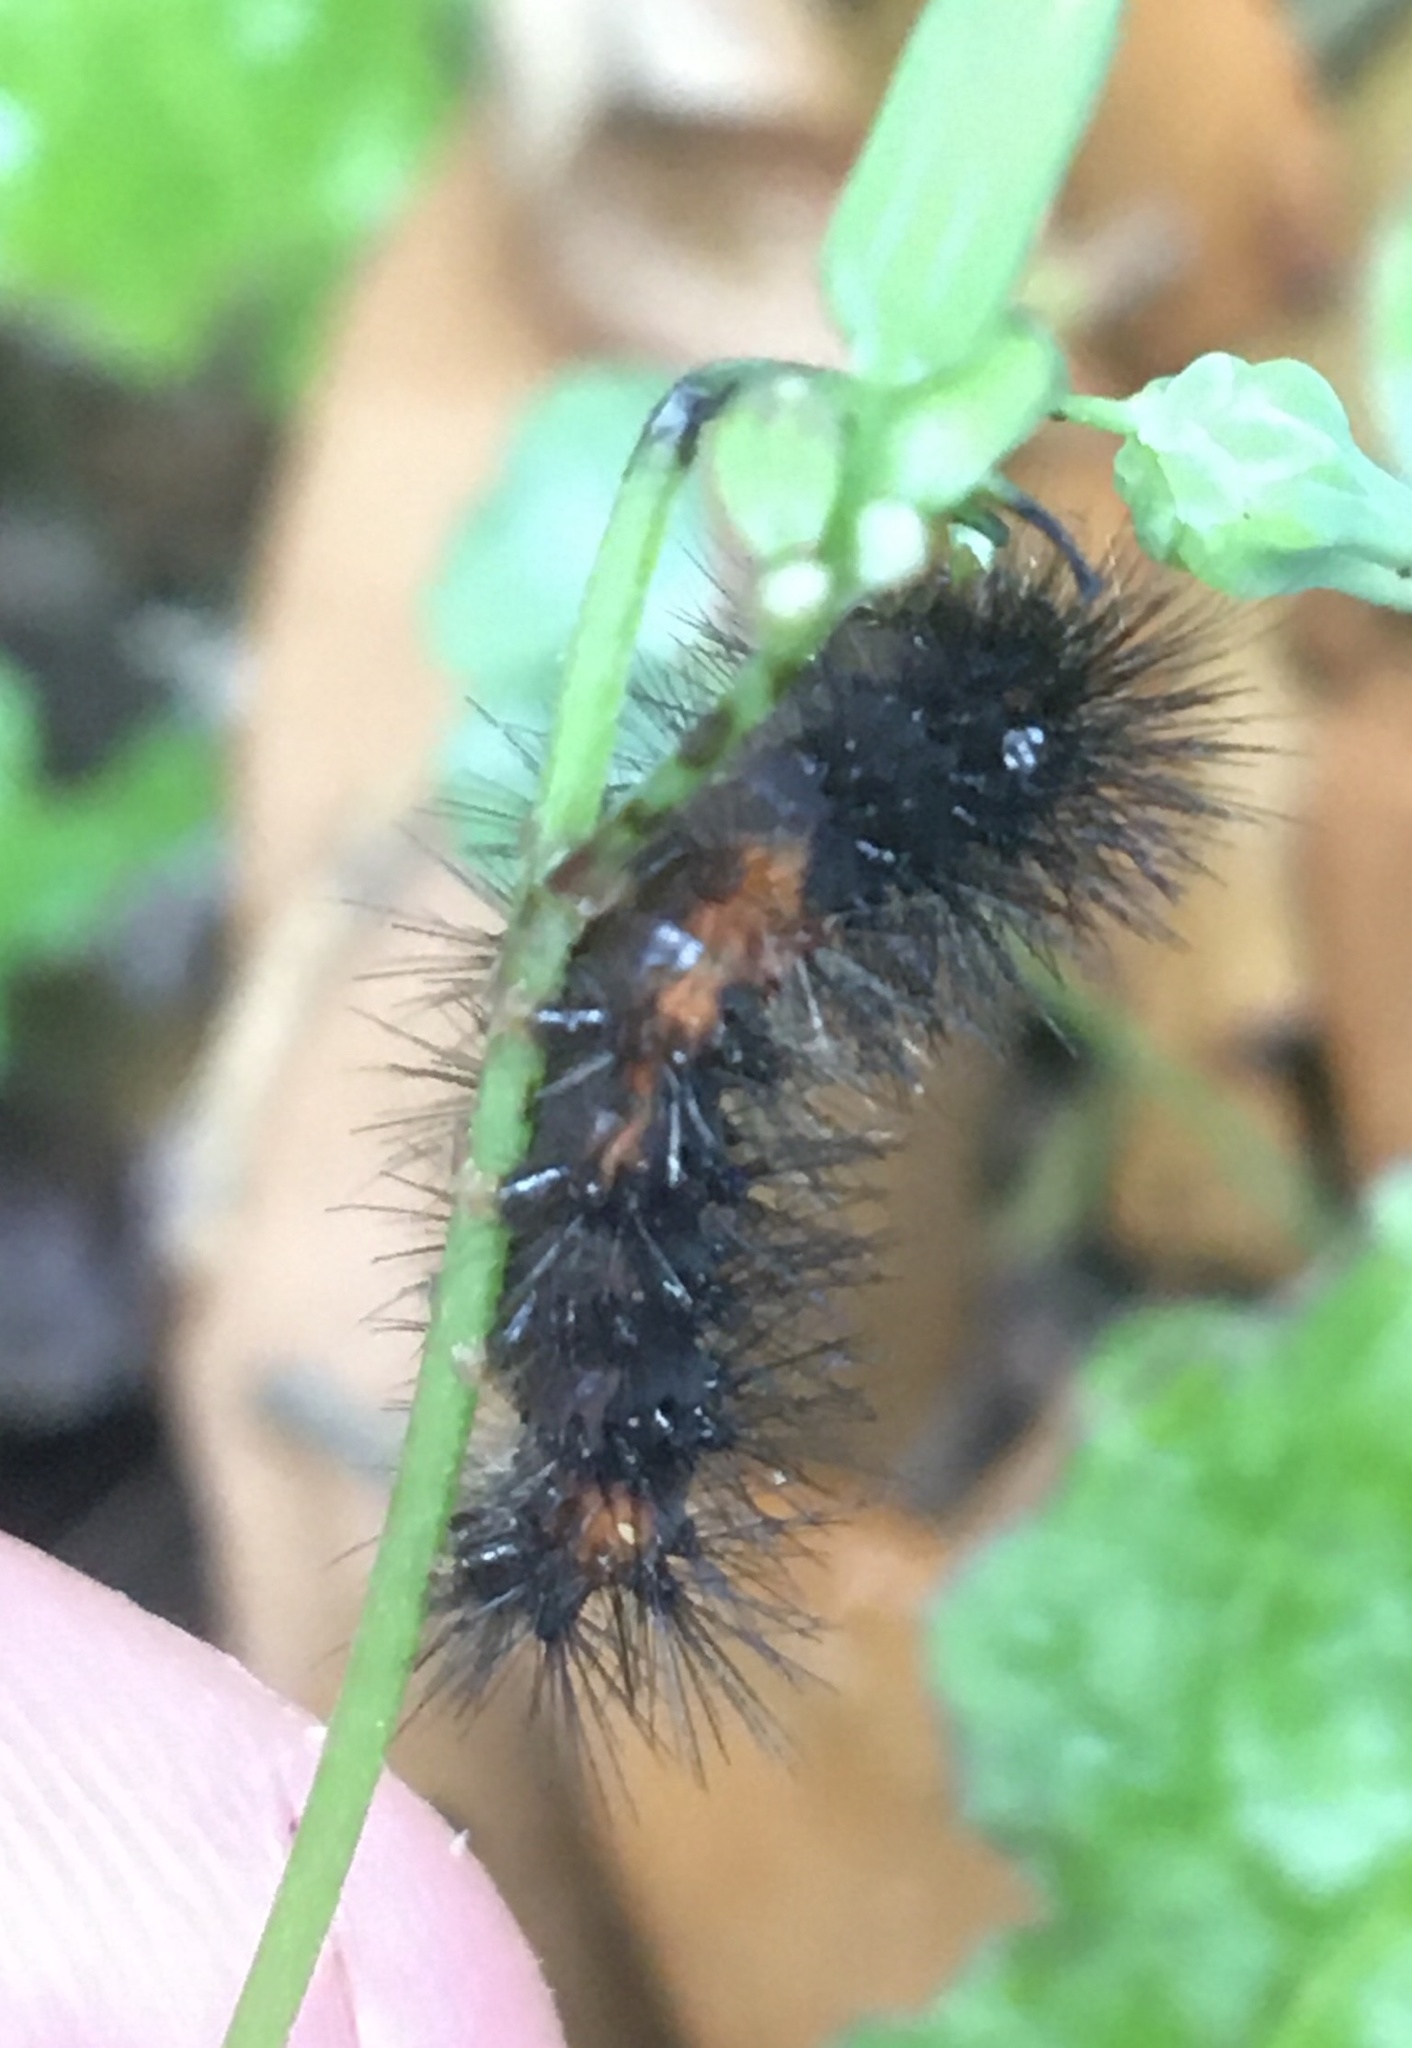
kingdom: Animalia
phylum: Arthropoda
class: Insecta
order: Lepidoptera
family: Erebidae
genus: Hypercompe
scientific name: Hypercompe scribonia
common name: Giant leopard moth
